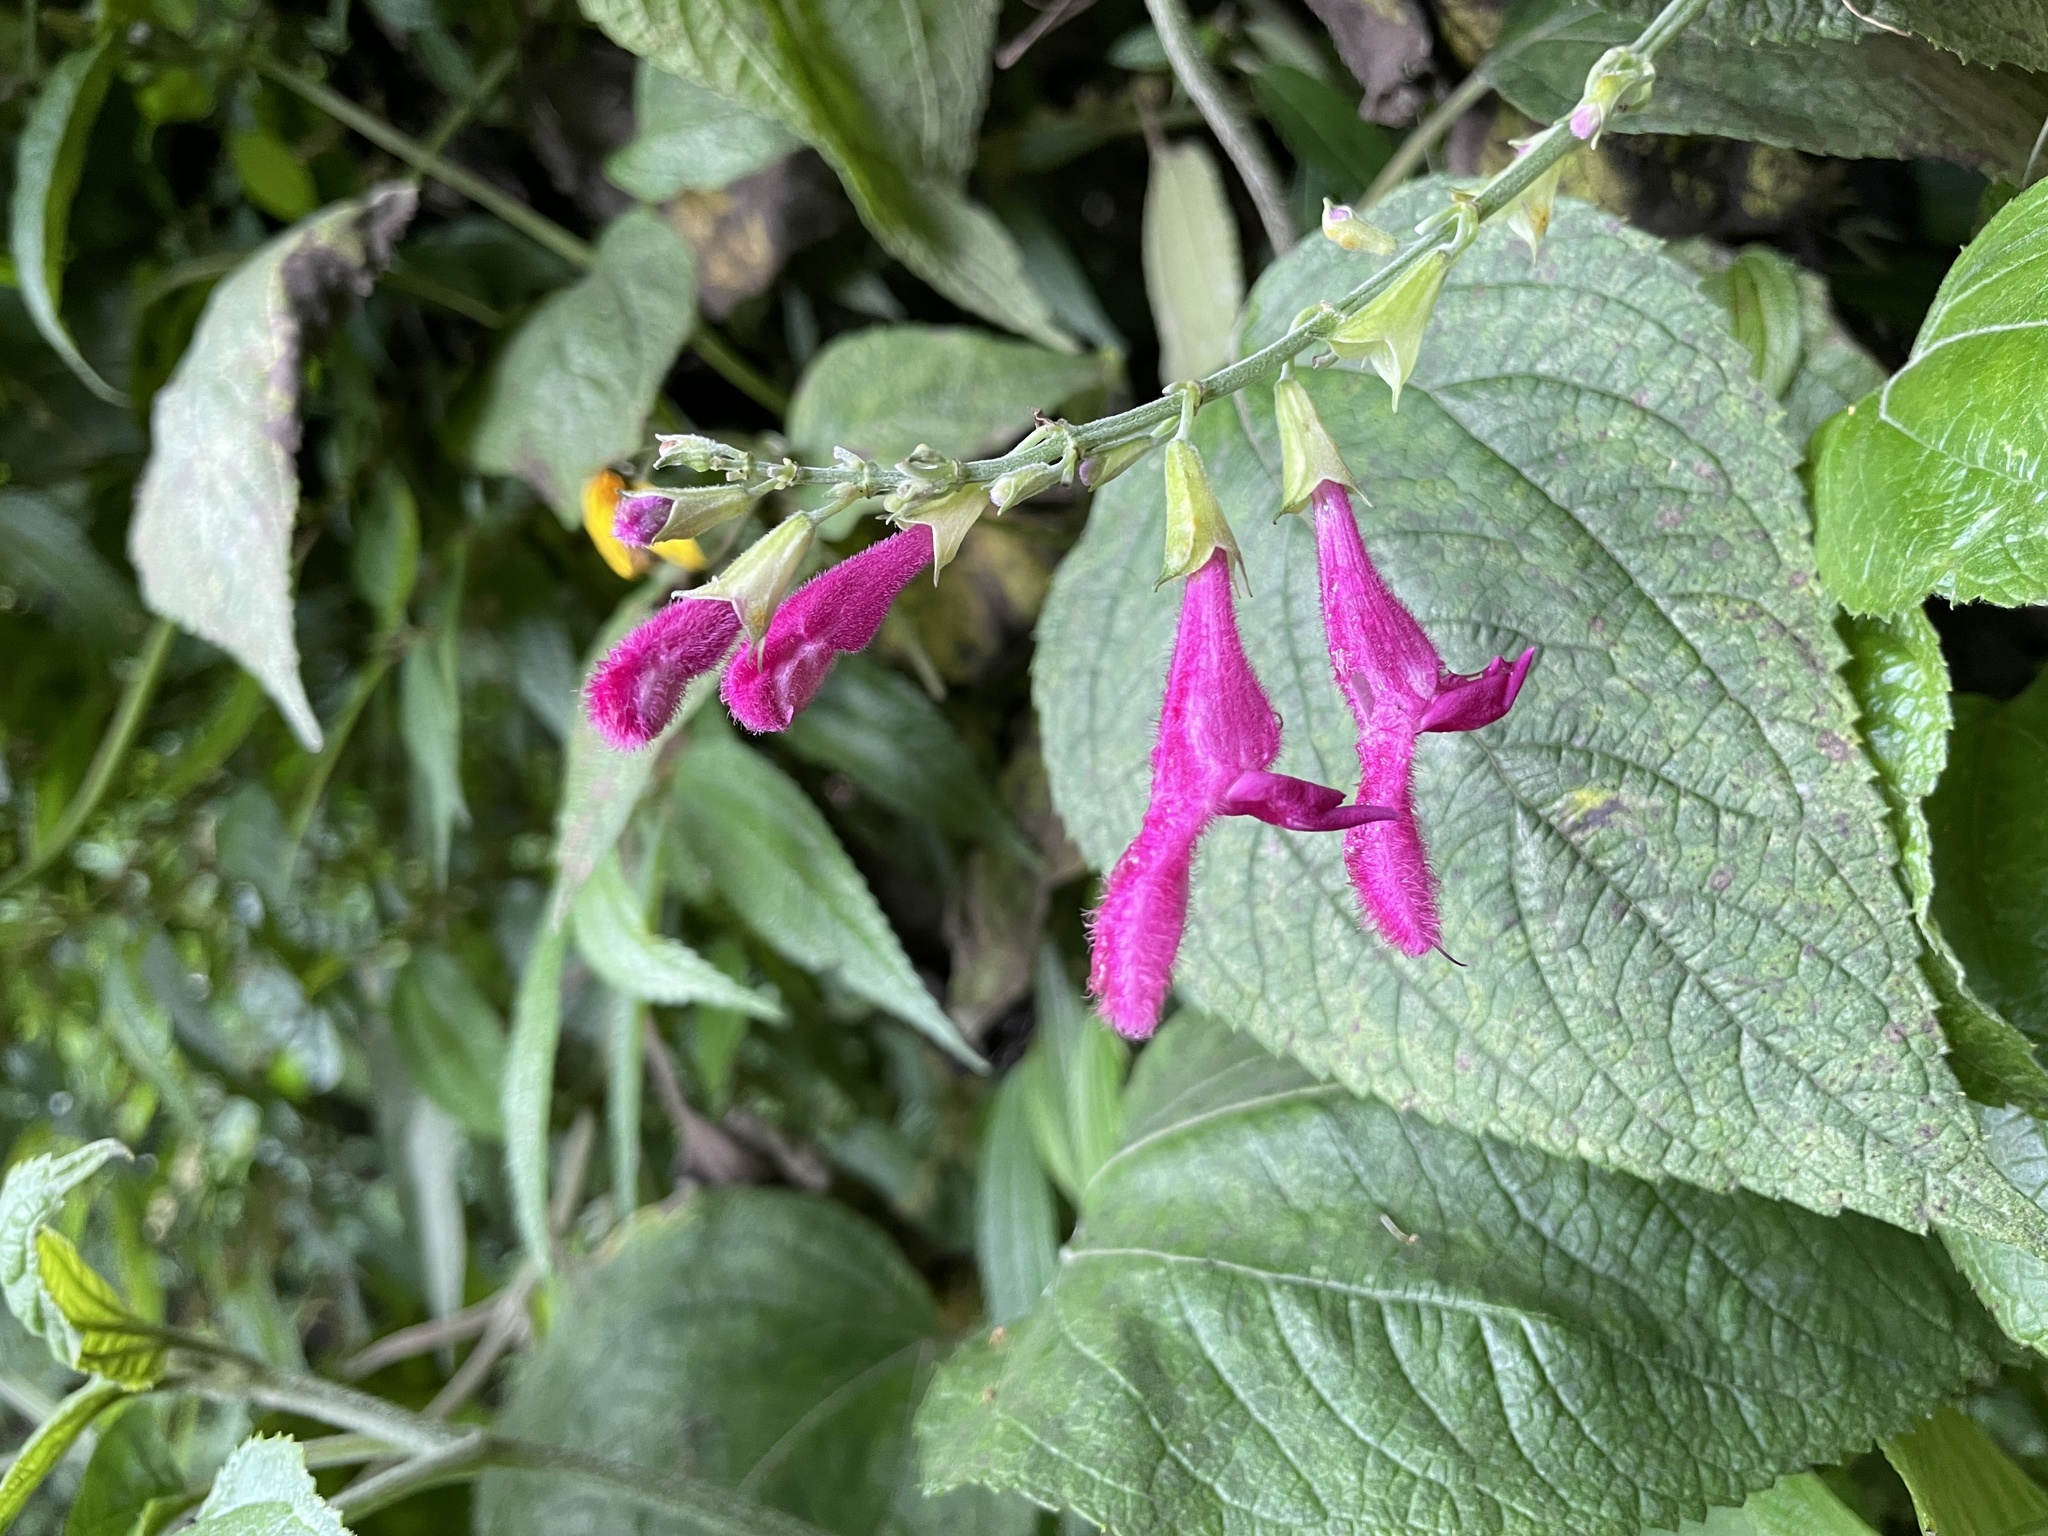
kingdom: Plantae
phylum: Tracheophyta
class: Magnoliopsida
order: Lamiales
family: Lamiaceae
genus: Salvia
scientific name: Salvia tortuosa
